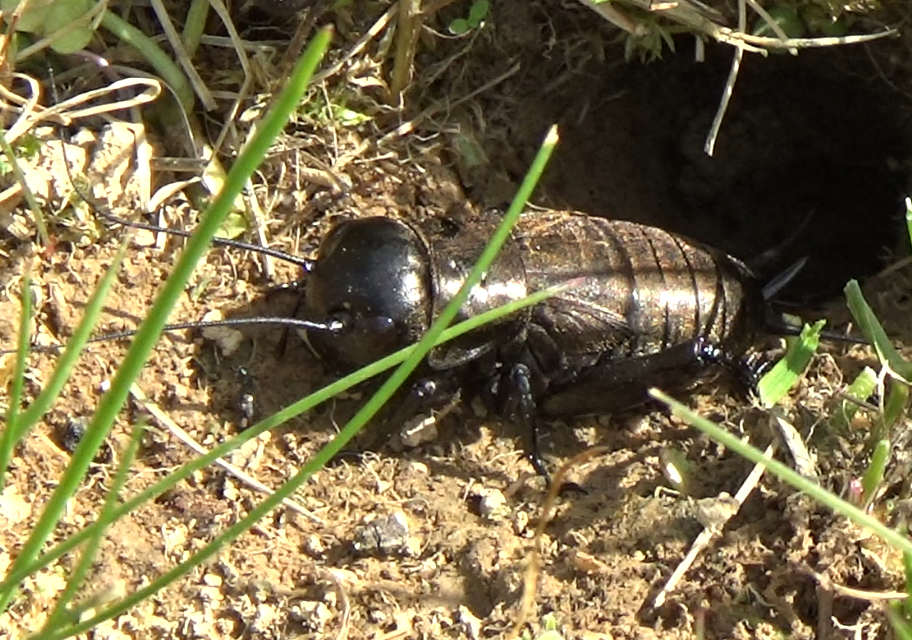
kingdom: Animalia
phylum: Arthropoda
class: Insecta
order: Orthoptera
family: Gryllidae
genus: Gryllus
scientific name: Gryllus campestris
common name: Field cricket
